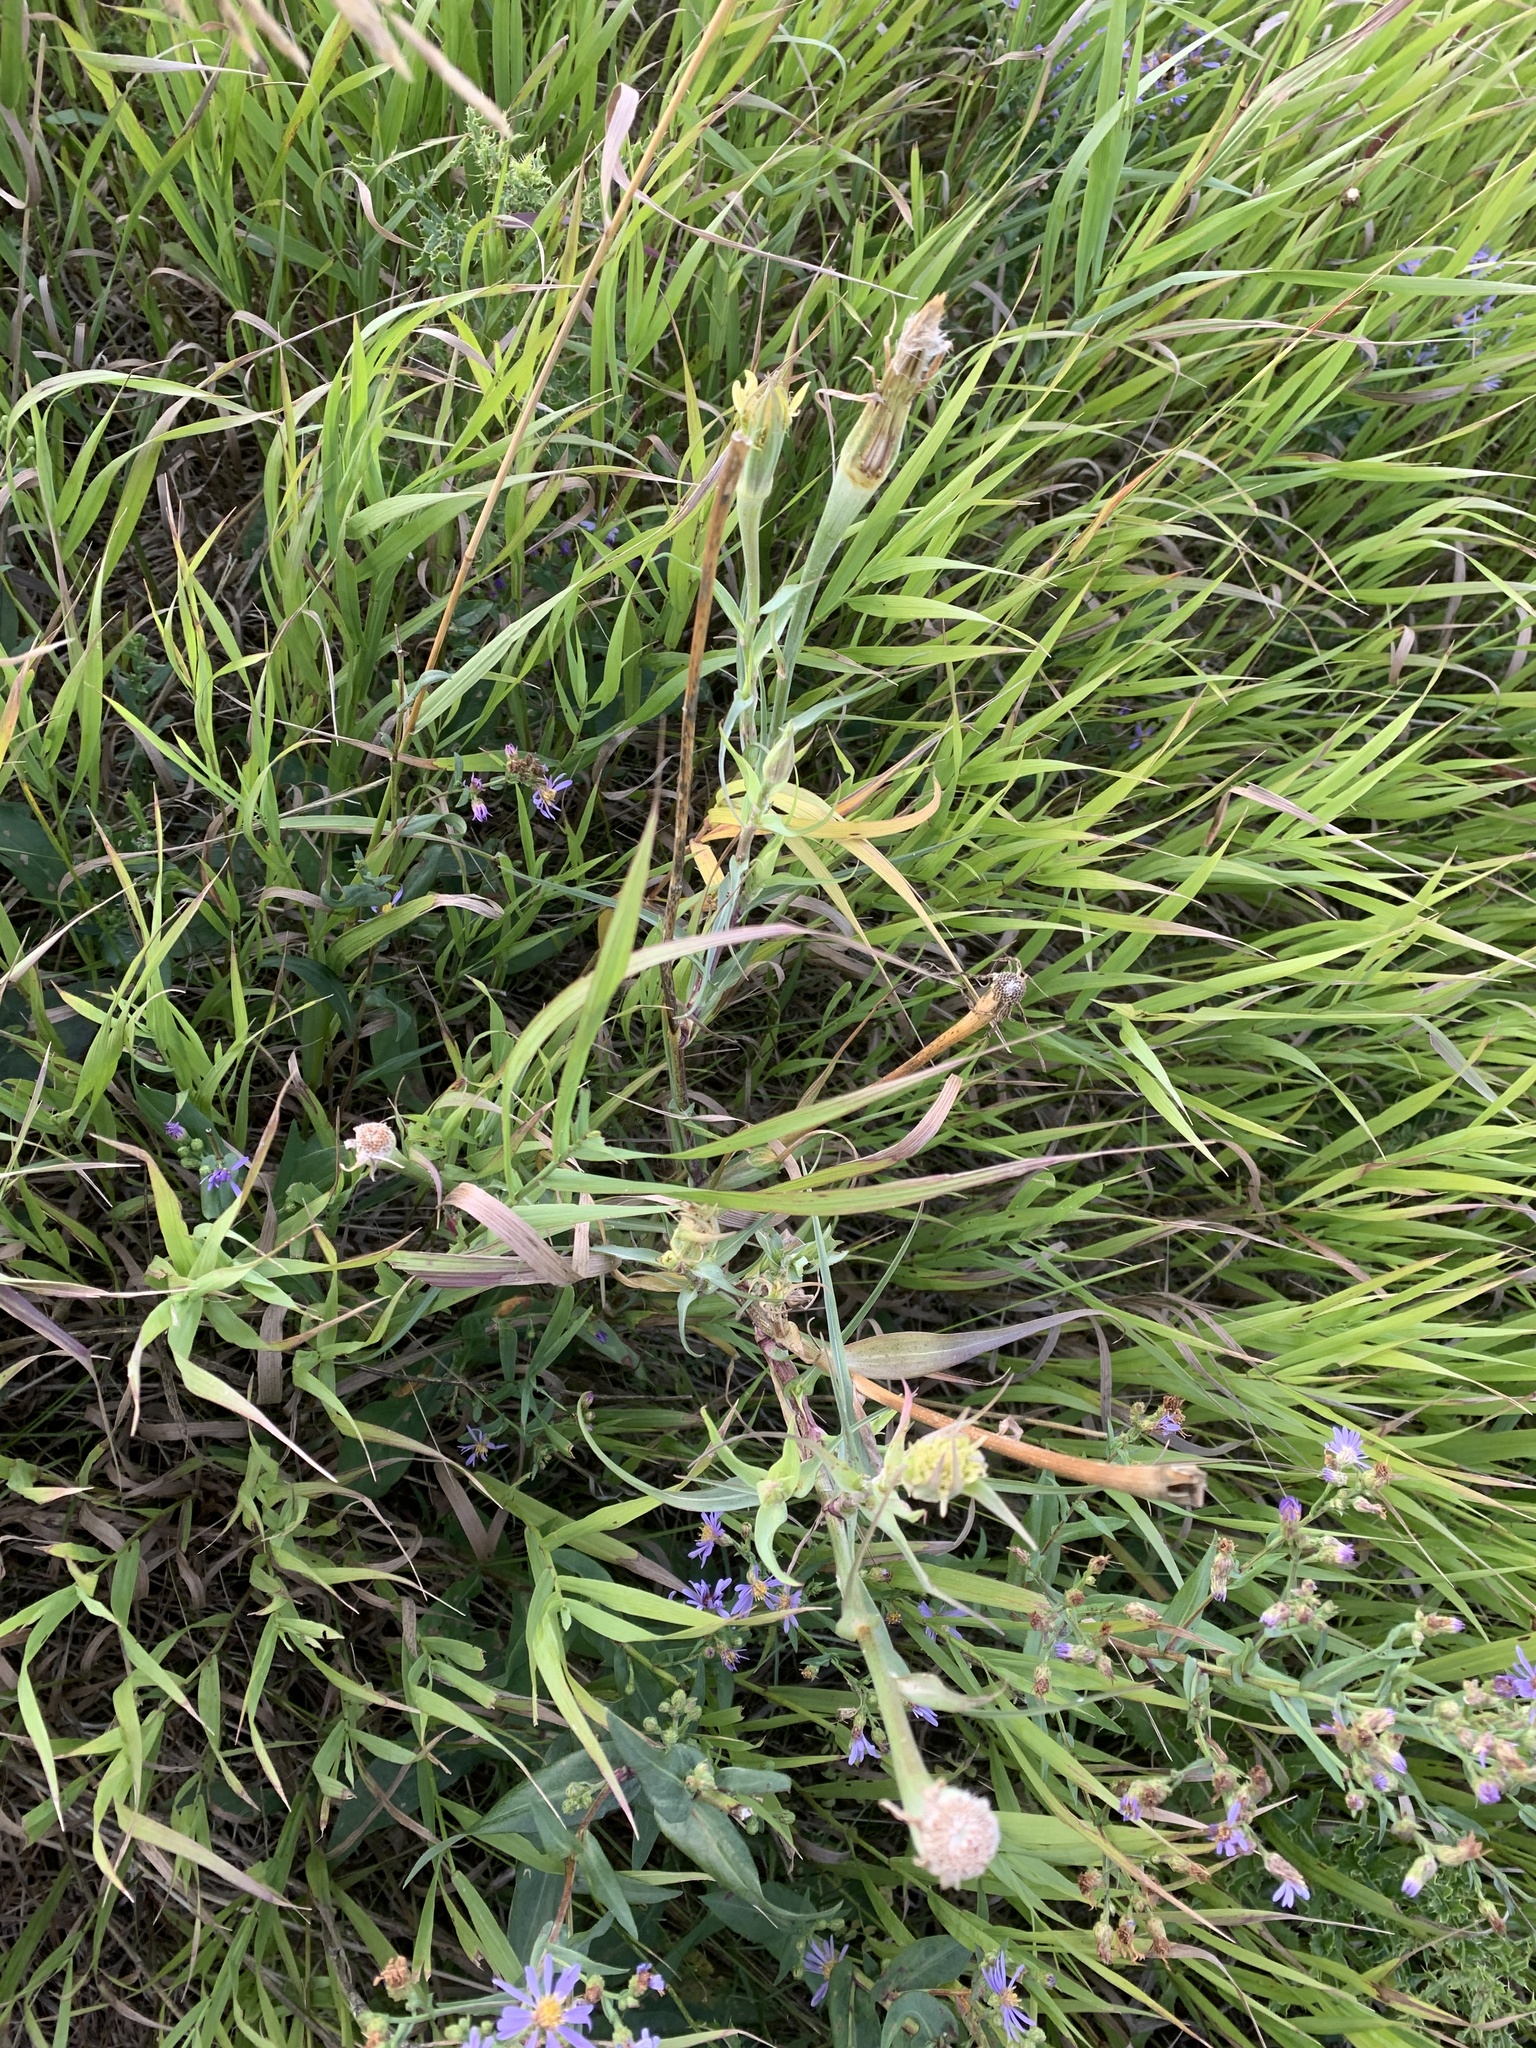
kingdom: Plantae
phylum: Tracheophyta
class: Magnoliopsida
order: Asterales
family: Asteraceae
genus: Tragopogon
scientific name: Tragopogon dubius
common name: Yellow salsify
